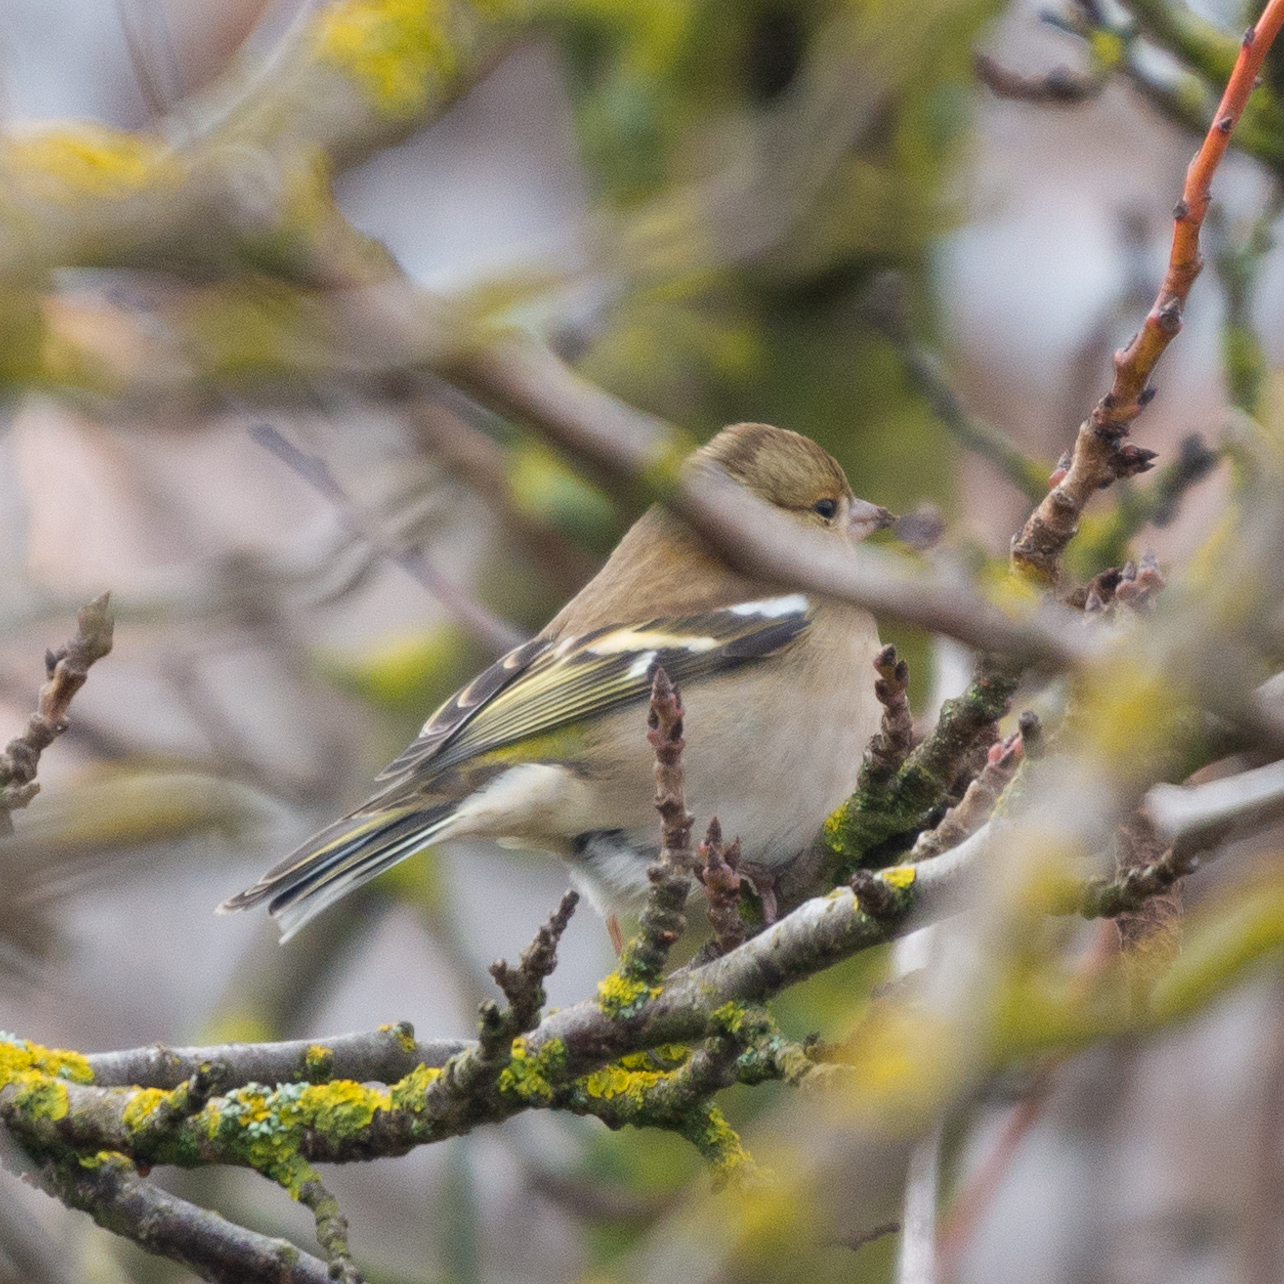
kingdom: Animalia
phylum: Chordata
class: Aves
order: Passeriformes
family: Fringillidae
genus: Fringilla
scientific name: Fringilla coelebs
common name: Common chaffinch
